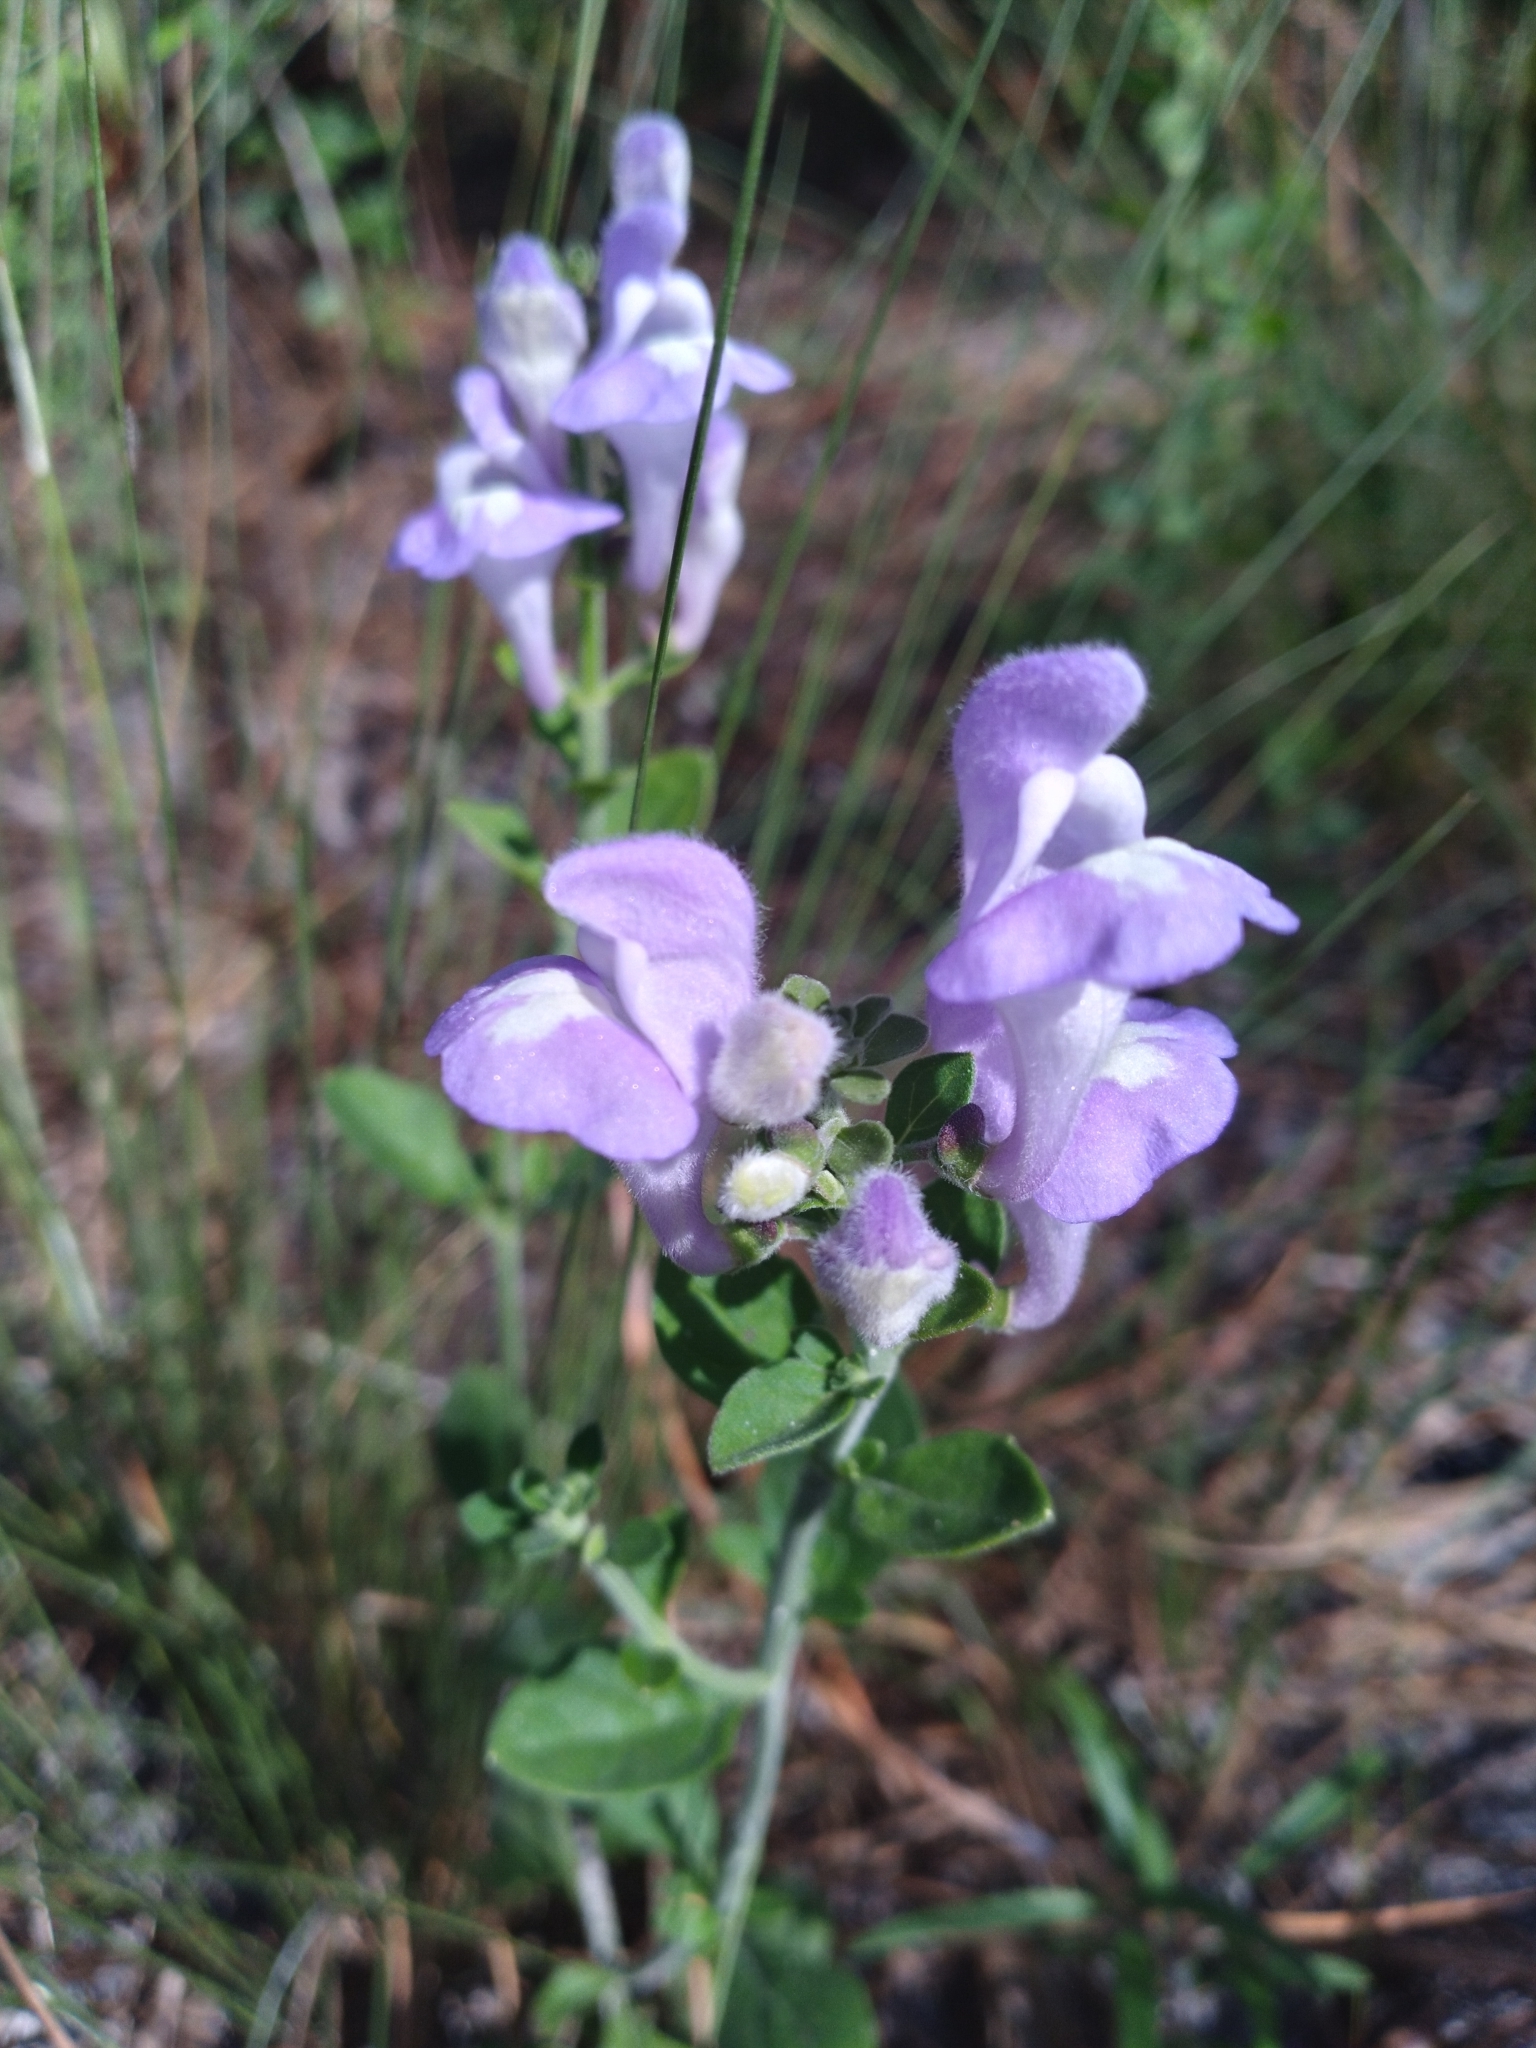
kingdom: Plantae
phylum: Tracheophyta
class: Magnoliopsida
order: Lamiales
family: Lamiaceae
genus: Scutellaria
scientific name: Scutellaria arenicola
